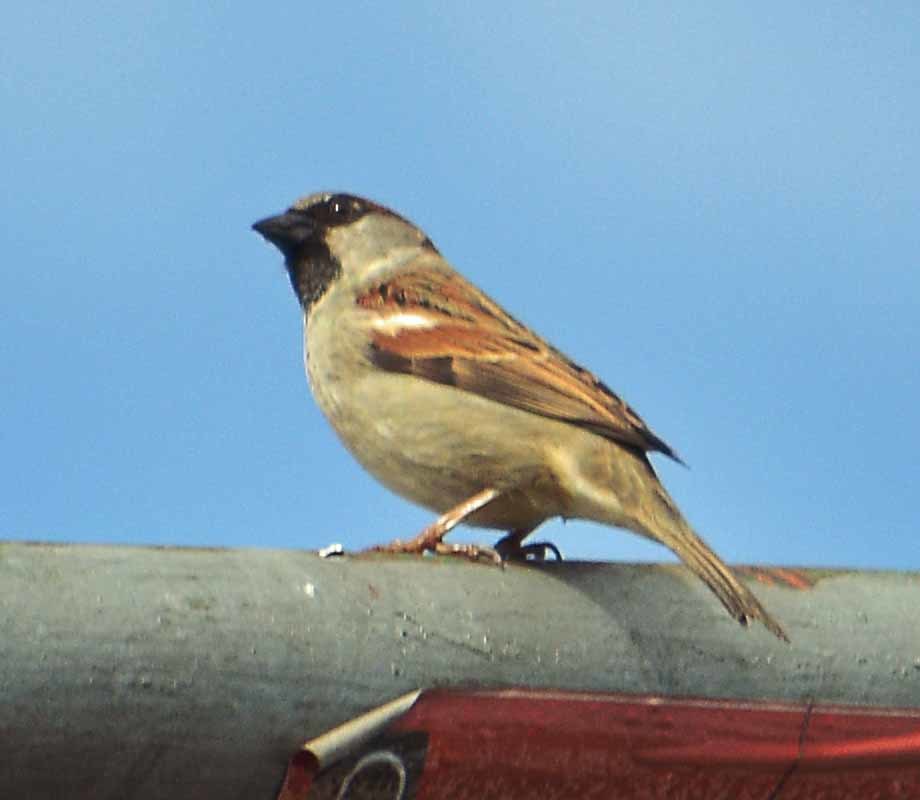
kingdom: Animalia
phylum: Chordata
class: Aves
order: Passeriformes
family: Passeridae
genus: Passer
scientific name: Passer domesticus
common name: House sparrow
